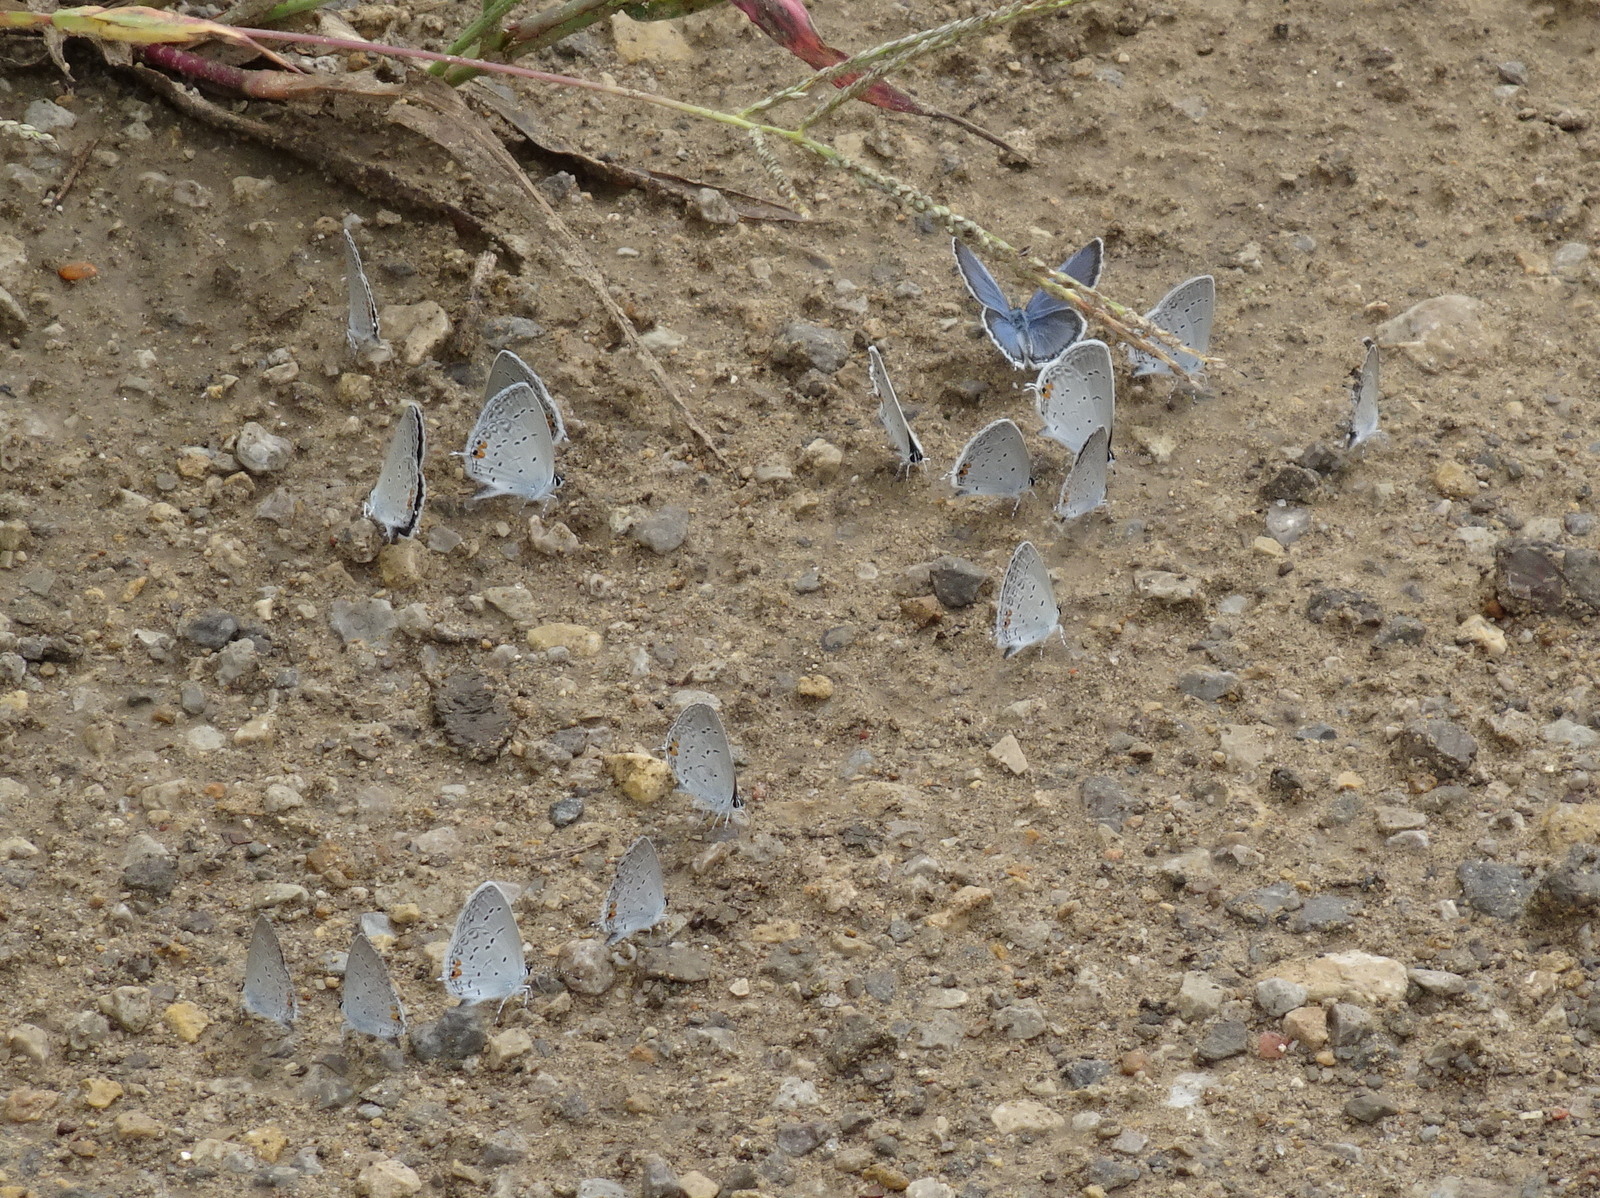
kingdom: Animalia
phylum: Arthropoda
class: Insecta
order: Lepidoptera
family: Lycaenidae
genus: Elkalyce
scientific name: Elkalyce comyntas
